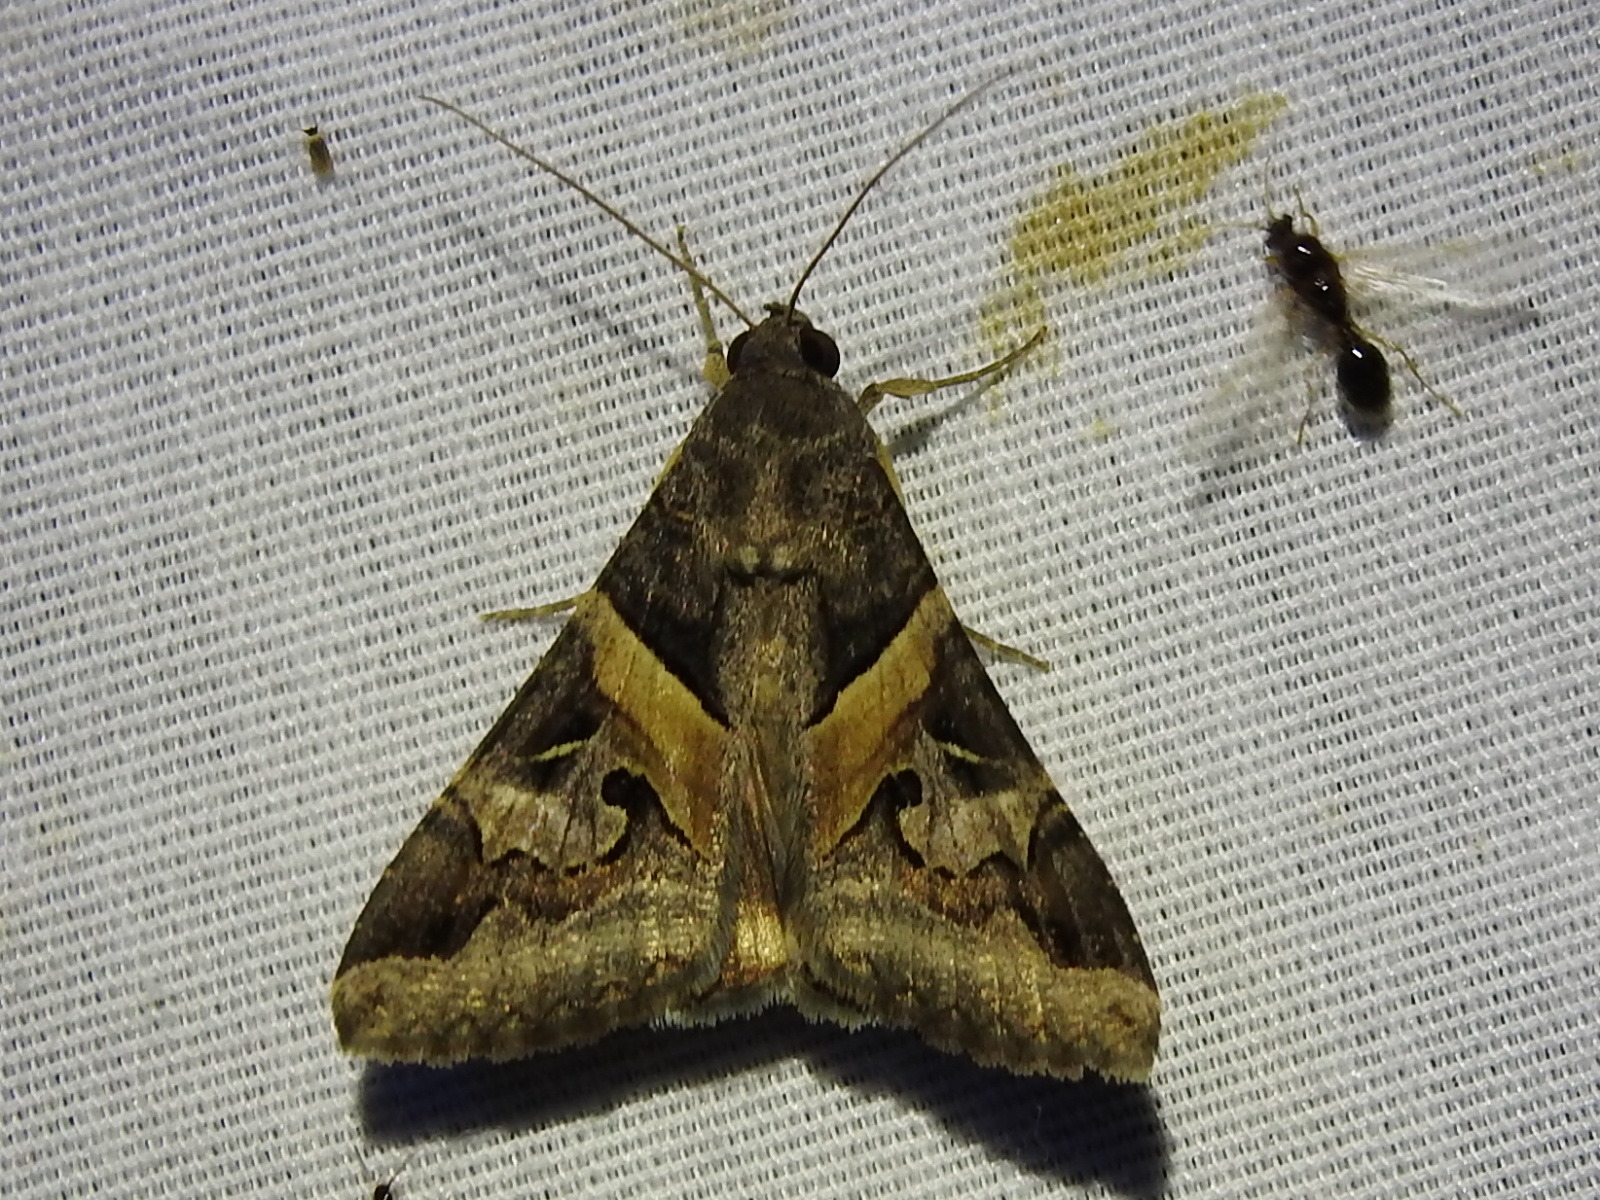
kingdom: Animalia
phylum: Arthropoda
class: Insecta
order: Lepidoptera
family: Erebidae
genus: Melipotis
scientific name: Melipotis indomita
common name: Moth
